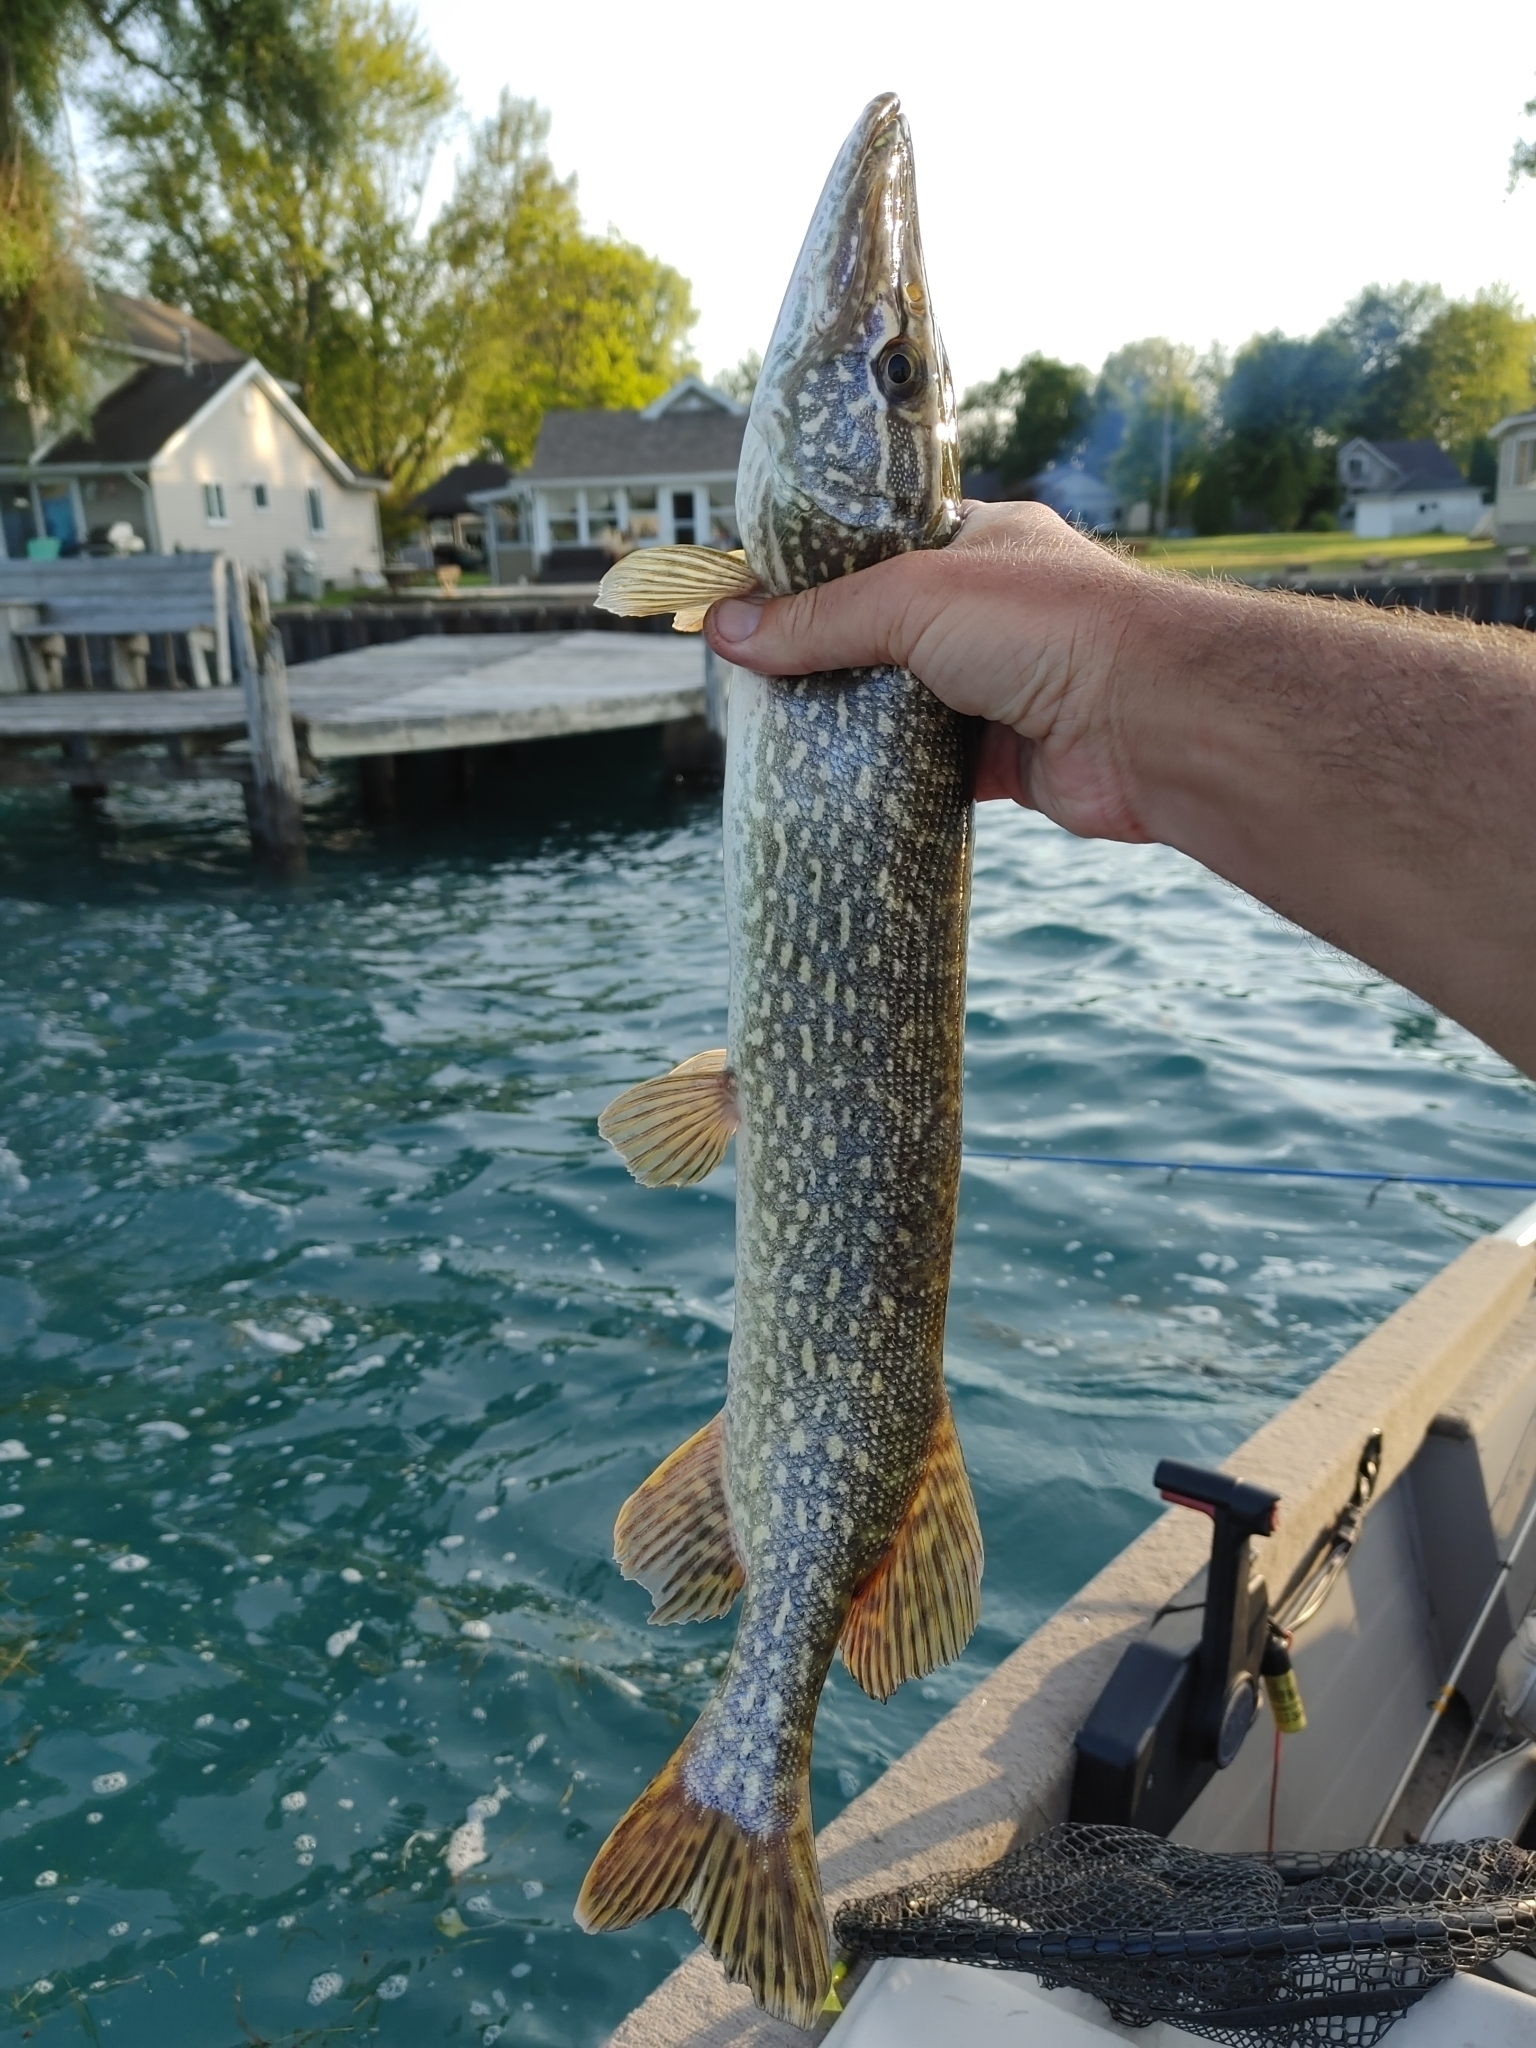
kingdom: Animalia
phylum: Chordata
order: Esociformes
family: Esocidae
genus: Esox
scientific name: Esox lucius
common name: Northern pike
